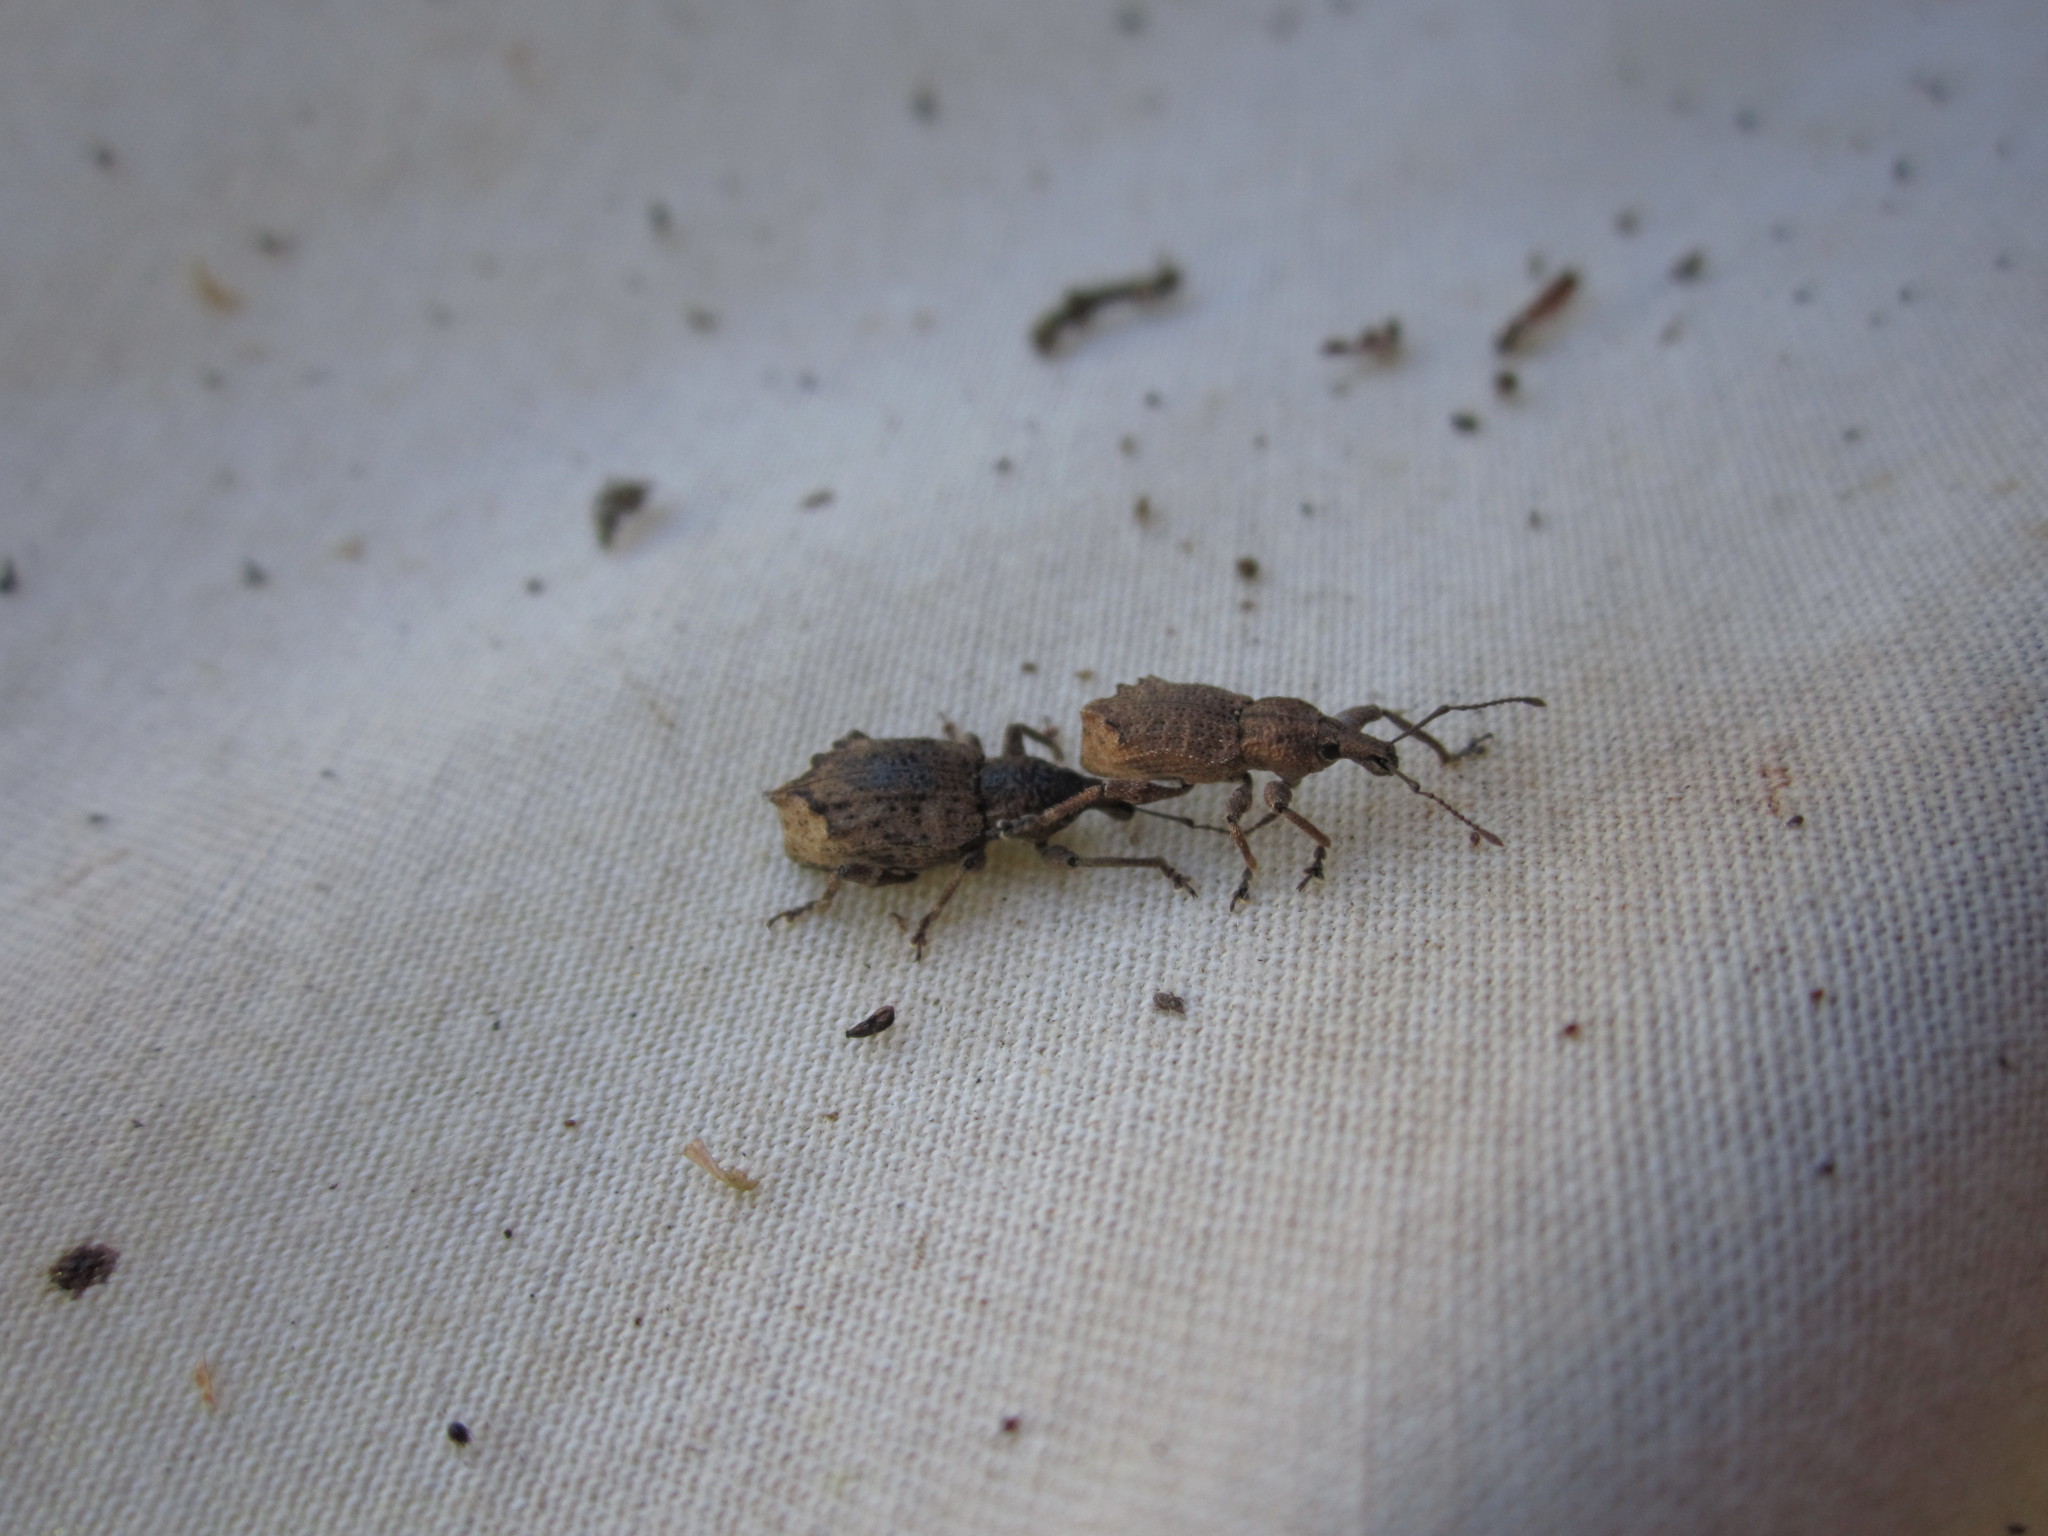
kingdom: Animalia
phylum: Arthropoda
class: Insecta
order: Coleoptera
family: Curculionidae
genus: Chalepistes
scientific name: Chalepistes rhesus
